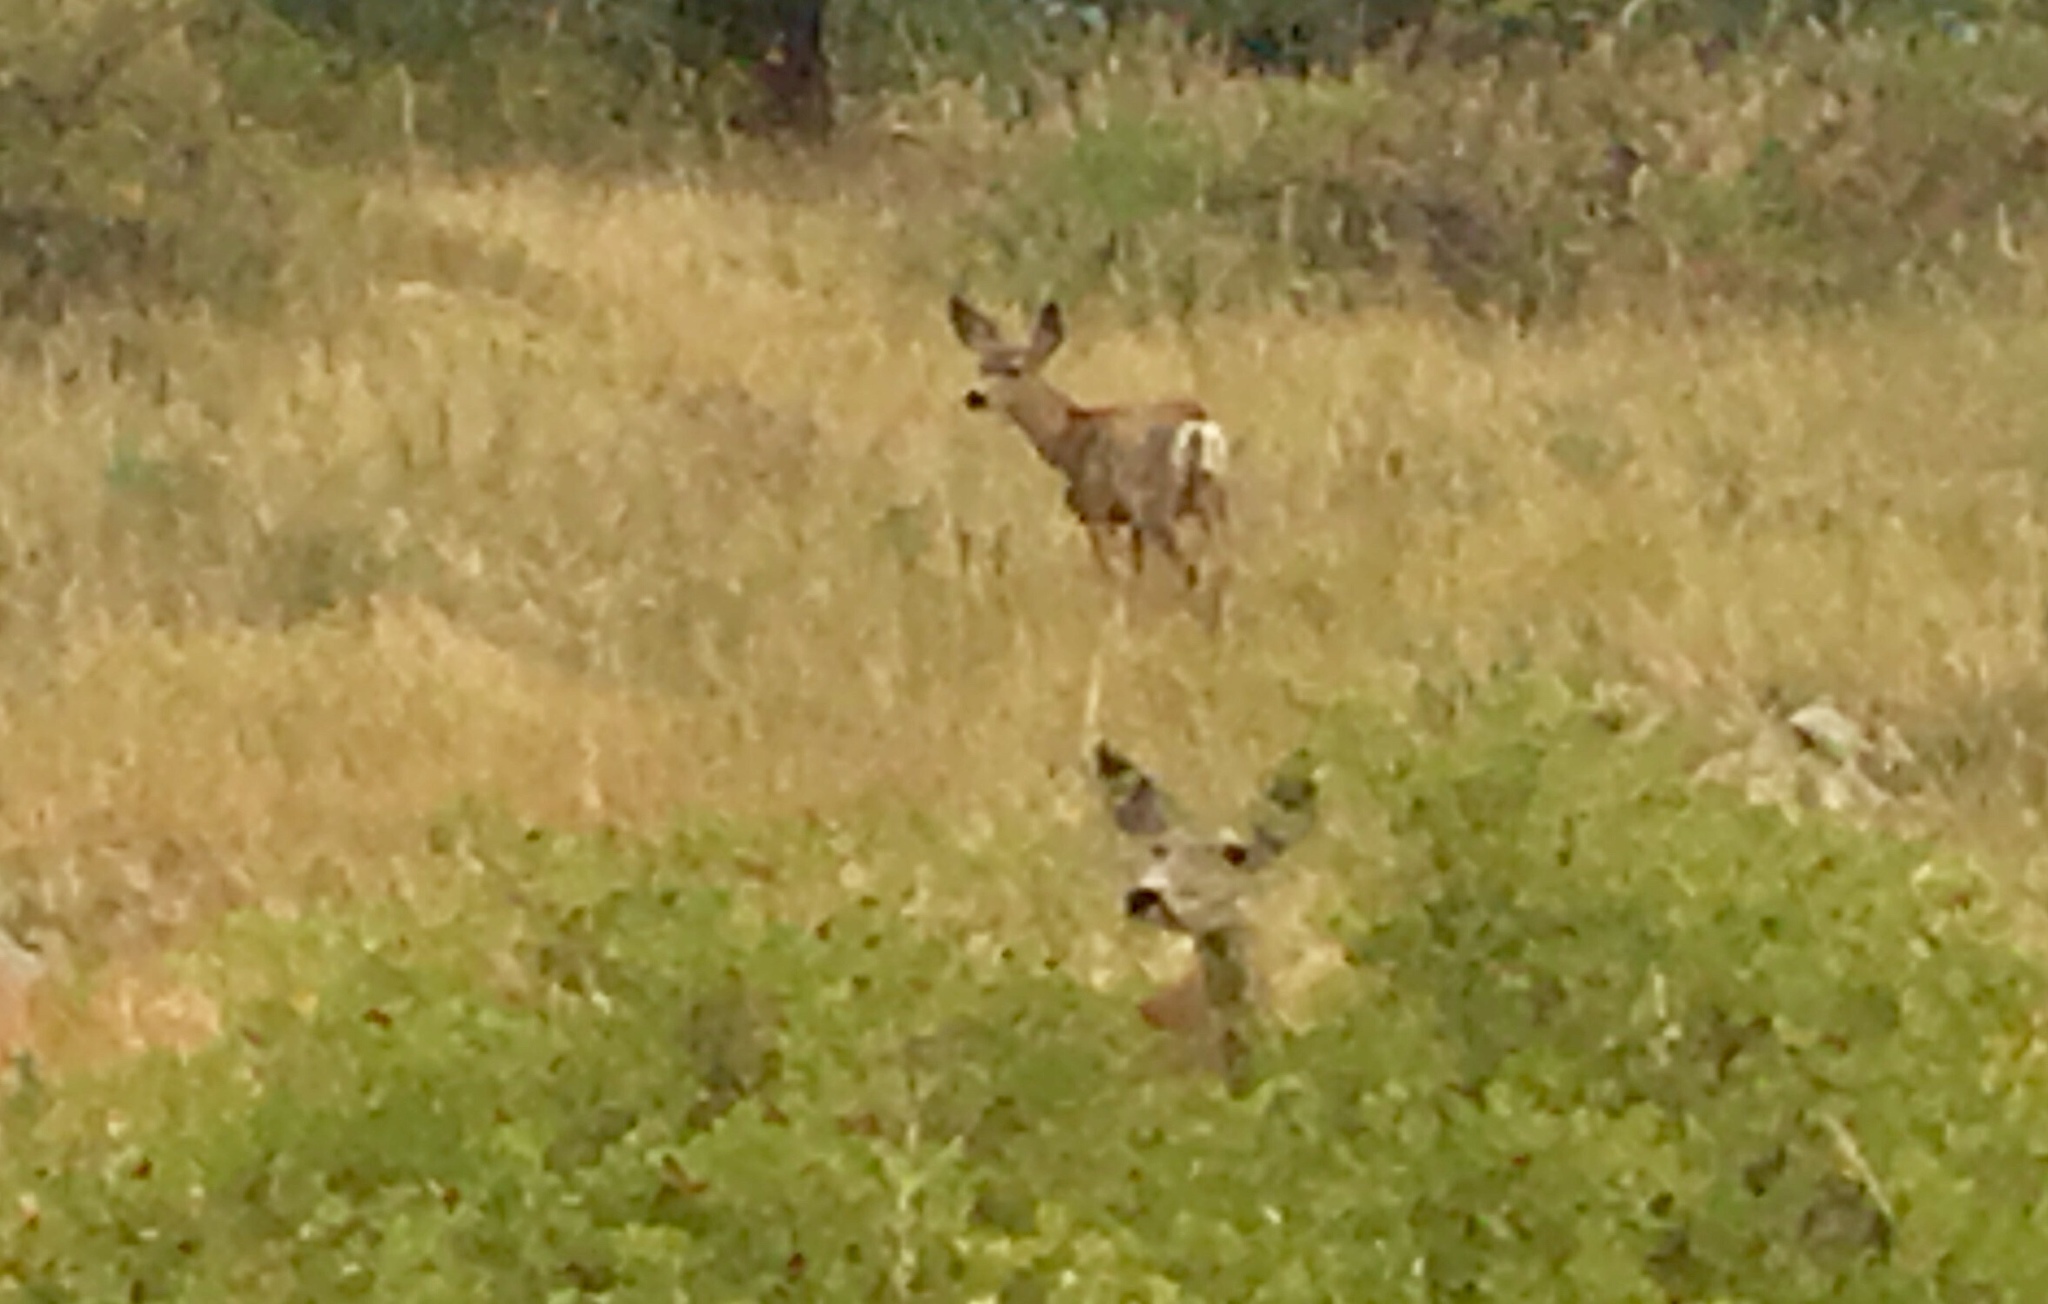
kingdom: Animalia
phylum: Chordata
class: Mammalia
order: Artiodactyla
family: Cervidae
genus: Odocoileus
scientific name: Odocoileus hemionus
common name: Mule deer
